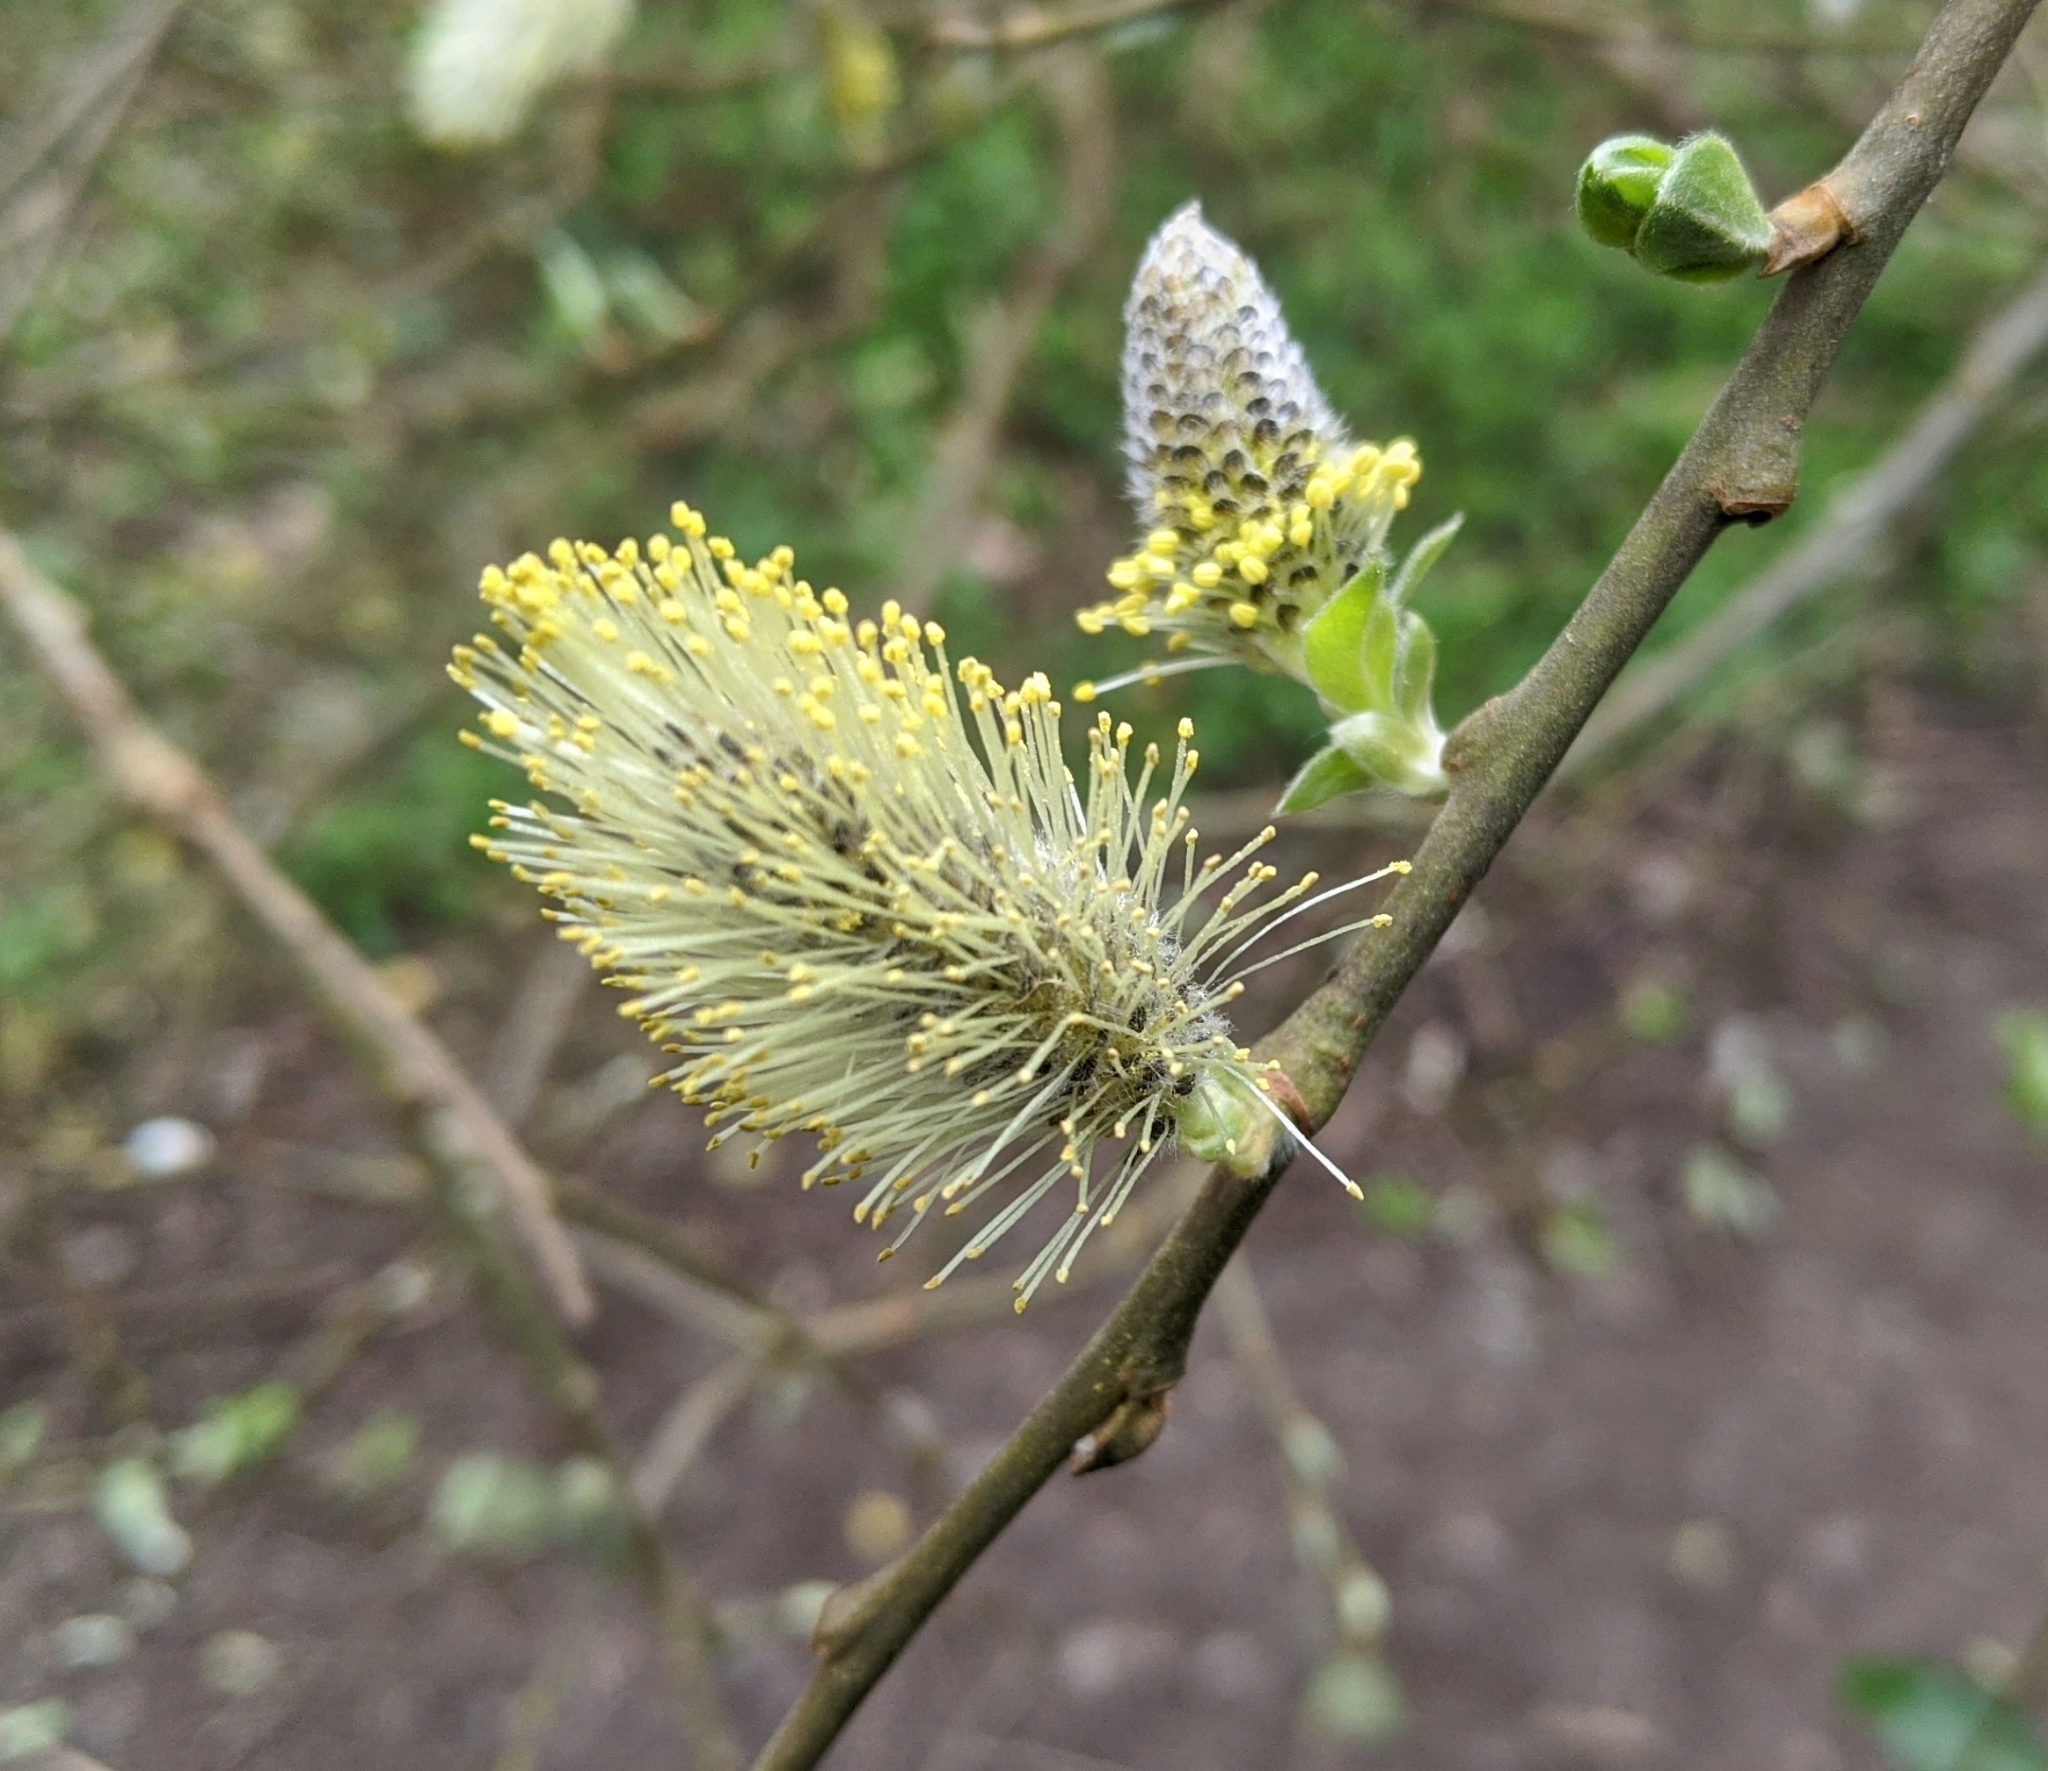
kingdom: Plantae
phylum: Tracheophyta
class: Magnoliopsida
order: Malpighiales
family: Salicaceae
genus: Salix
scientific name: Salix caprea
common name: Goat willow
